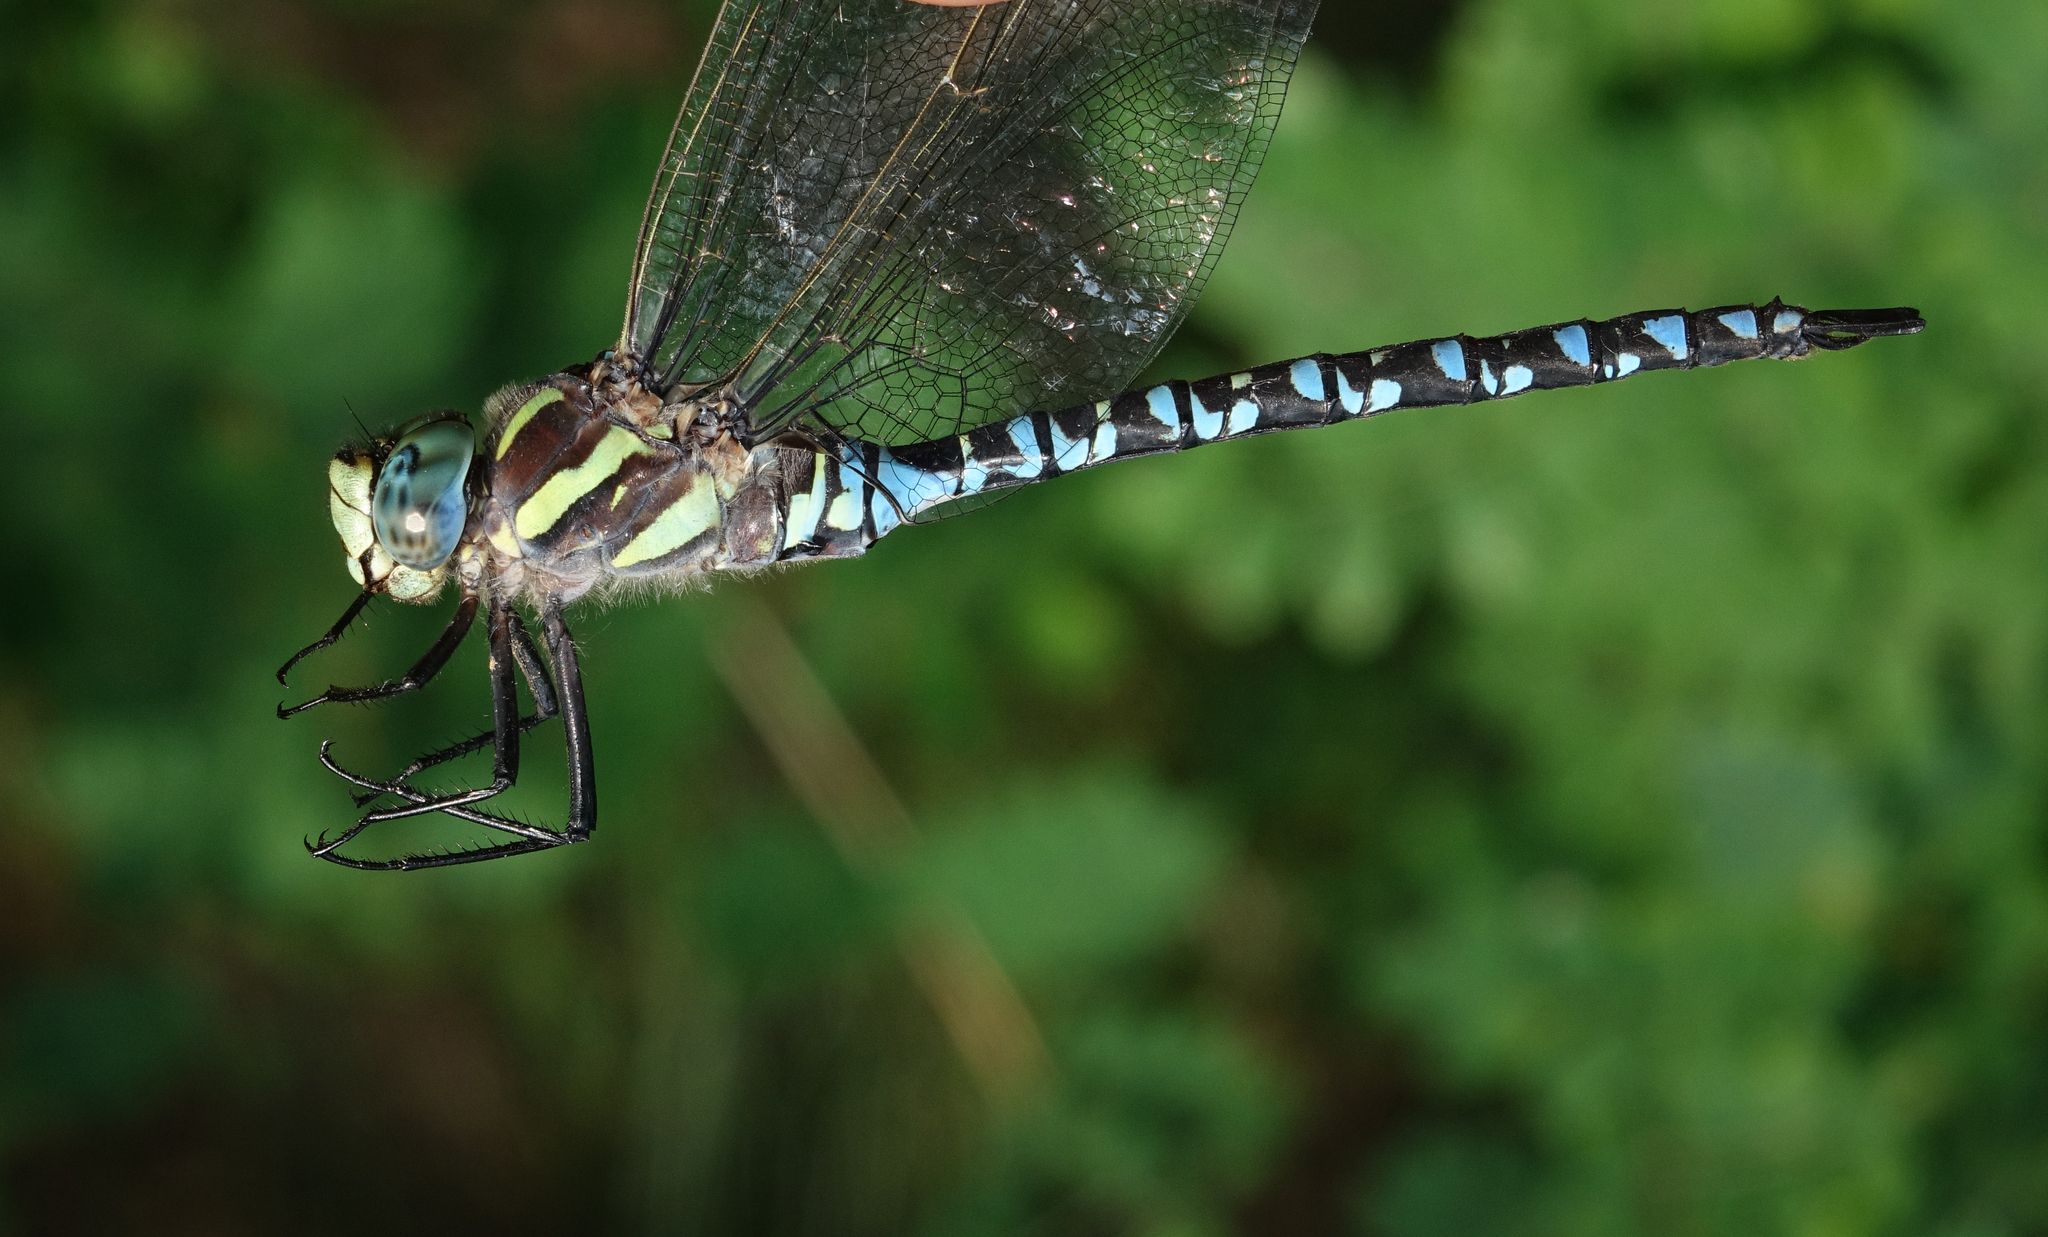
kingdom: Animalia
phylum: Arthropoda
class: Insecta
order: Odonata
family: Aeshnidae
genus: Aeshna
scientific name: Aeshna crenata
